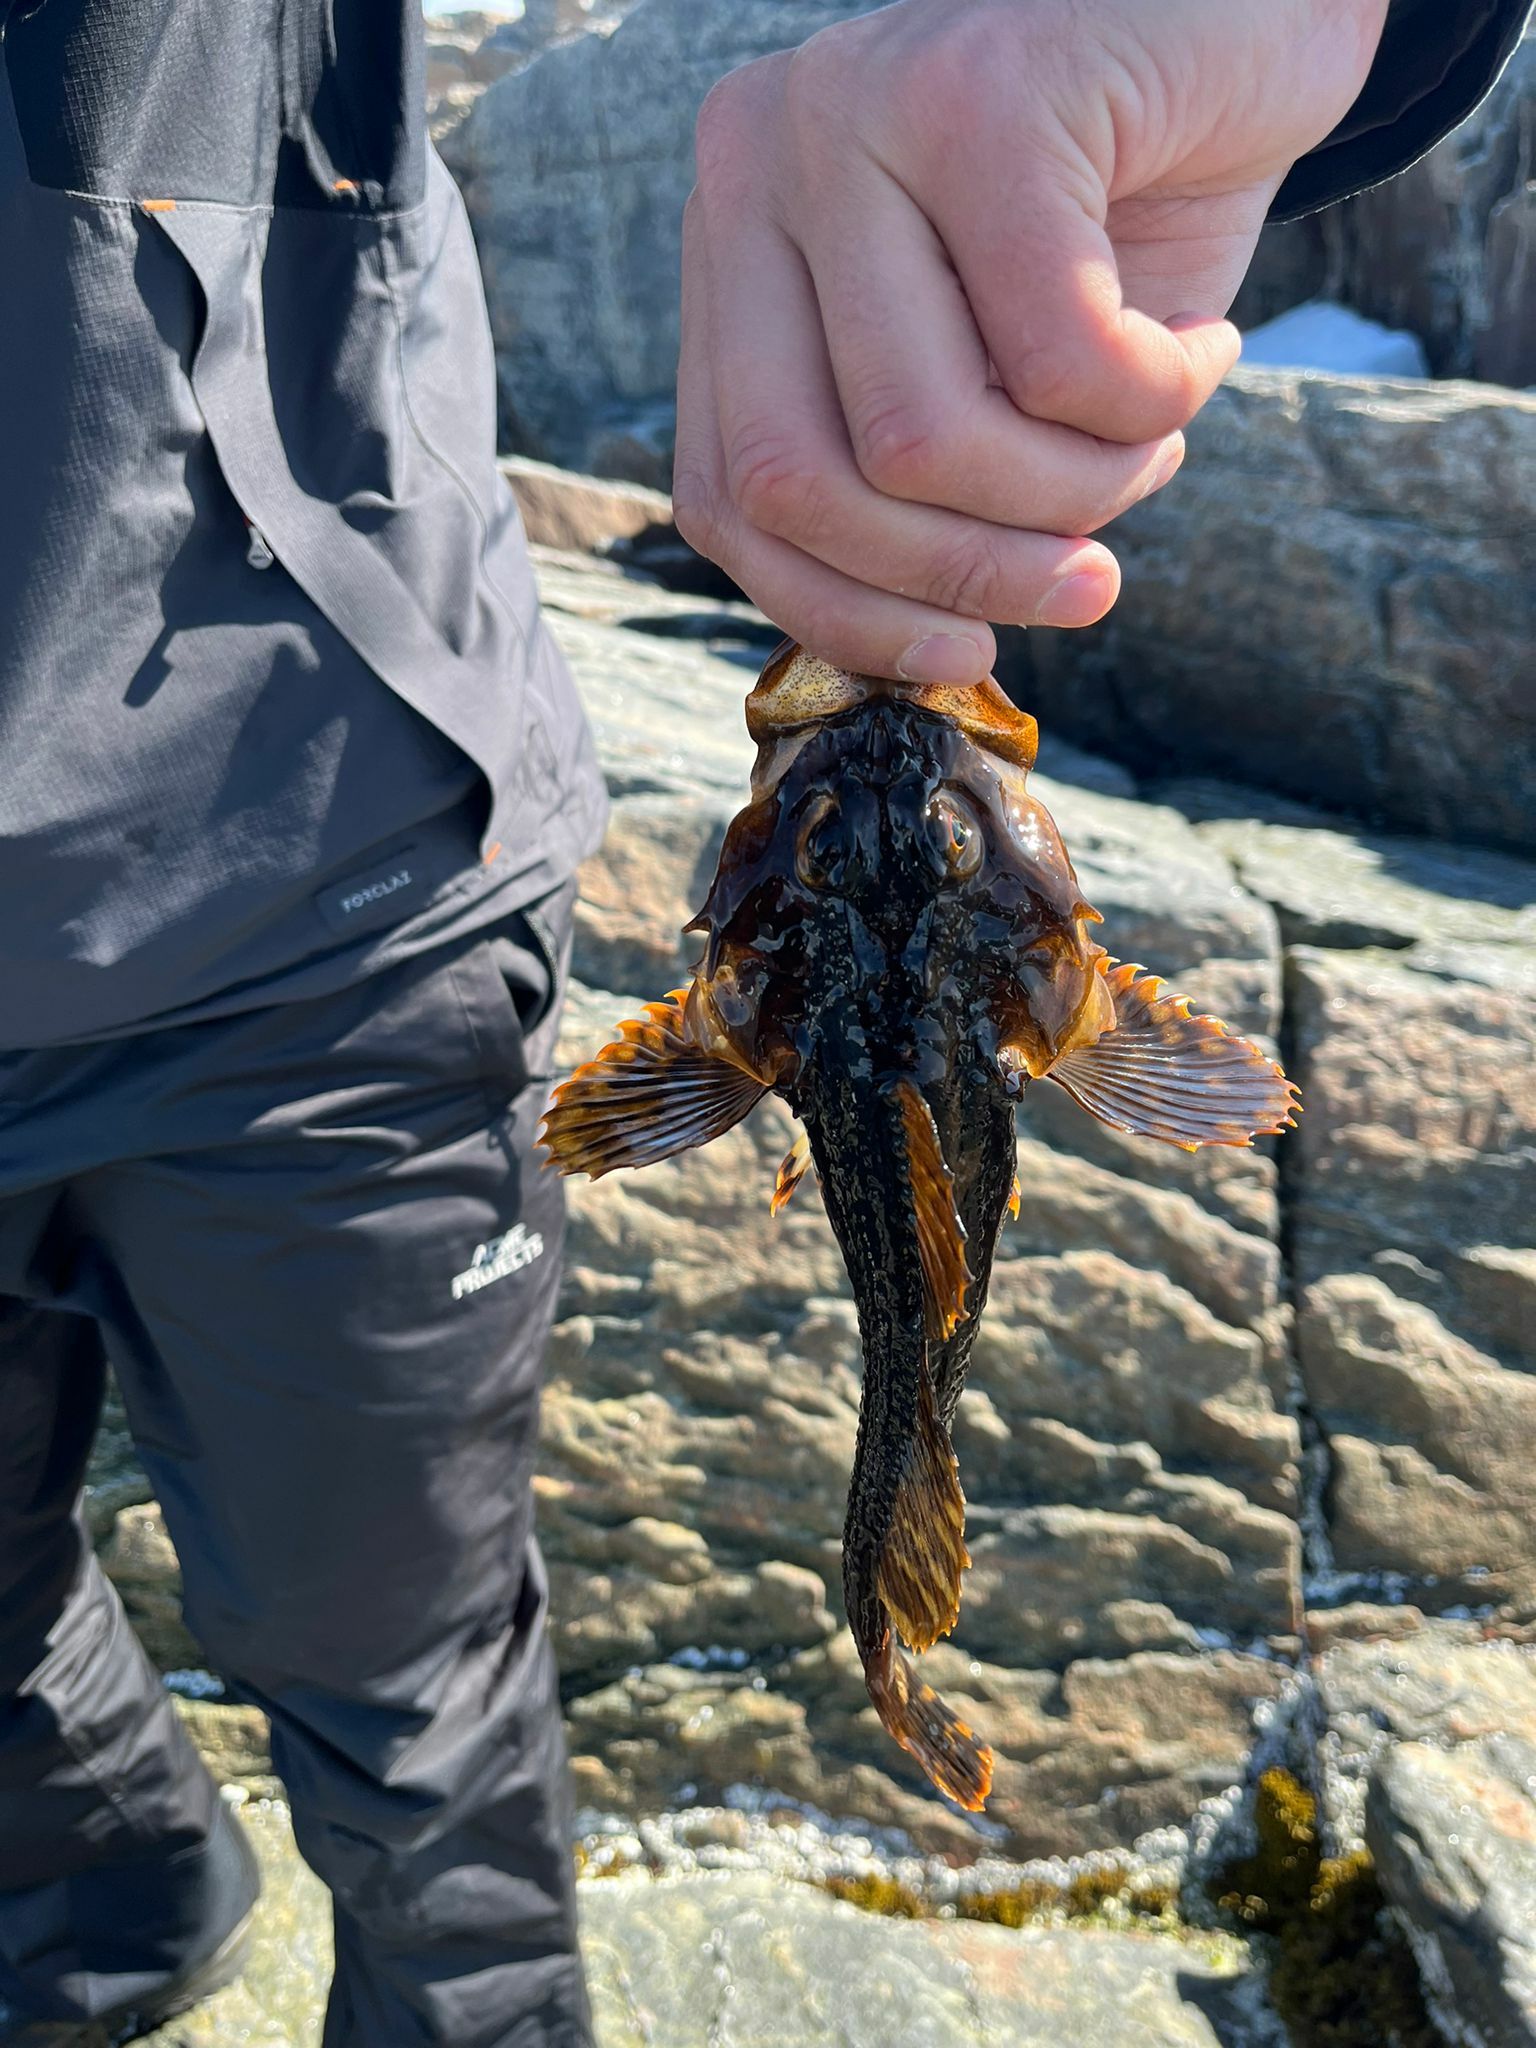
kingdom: Animalia
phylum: Chordata
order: Scorpaeniformes
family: Cottidae
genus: Myoxocephalus
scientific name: Myoxocephalus scorpius
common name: Shorthorn sculpin
